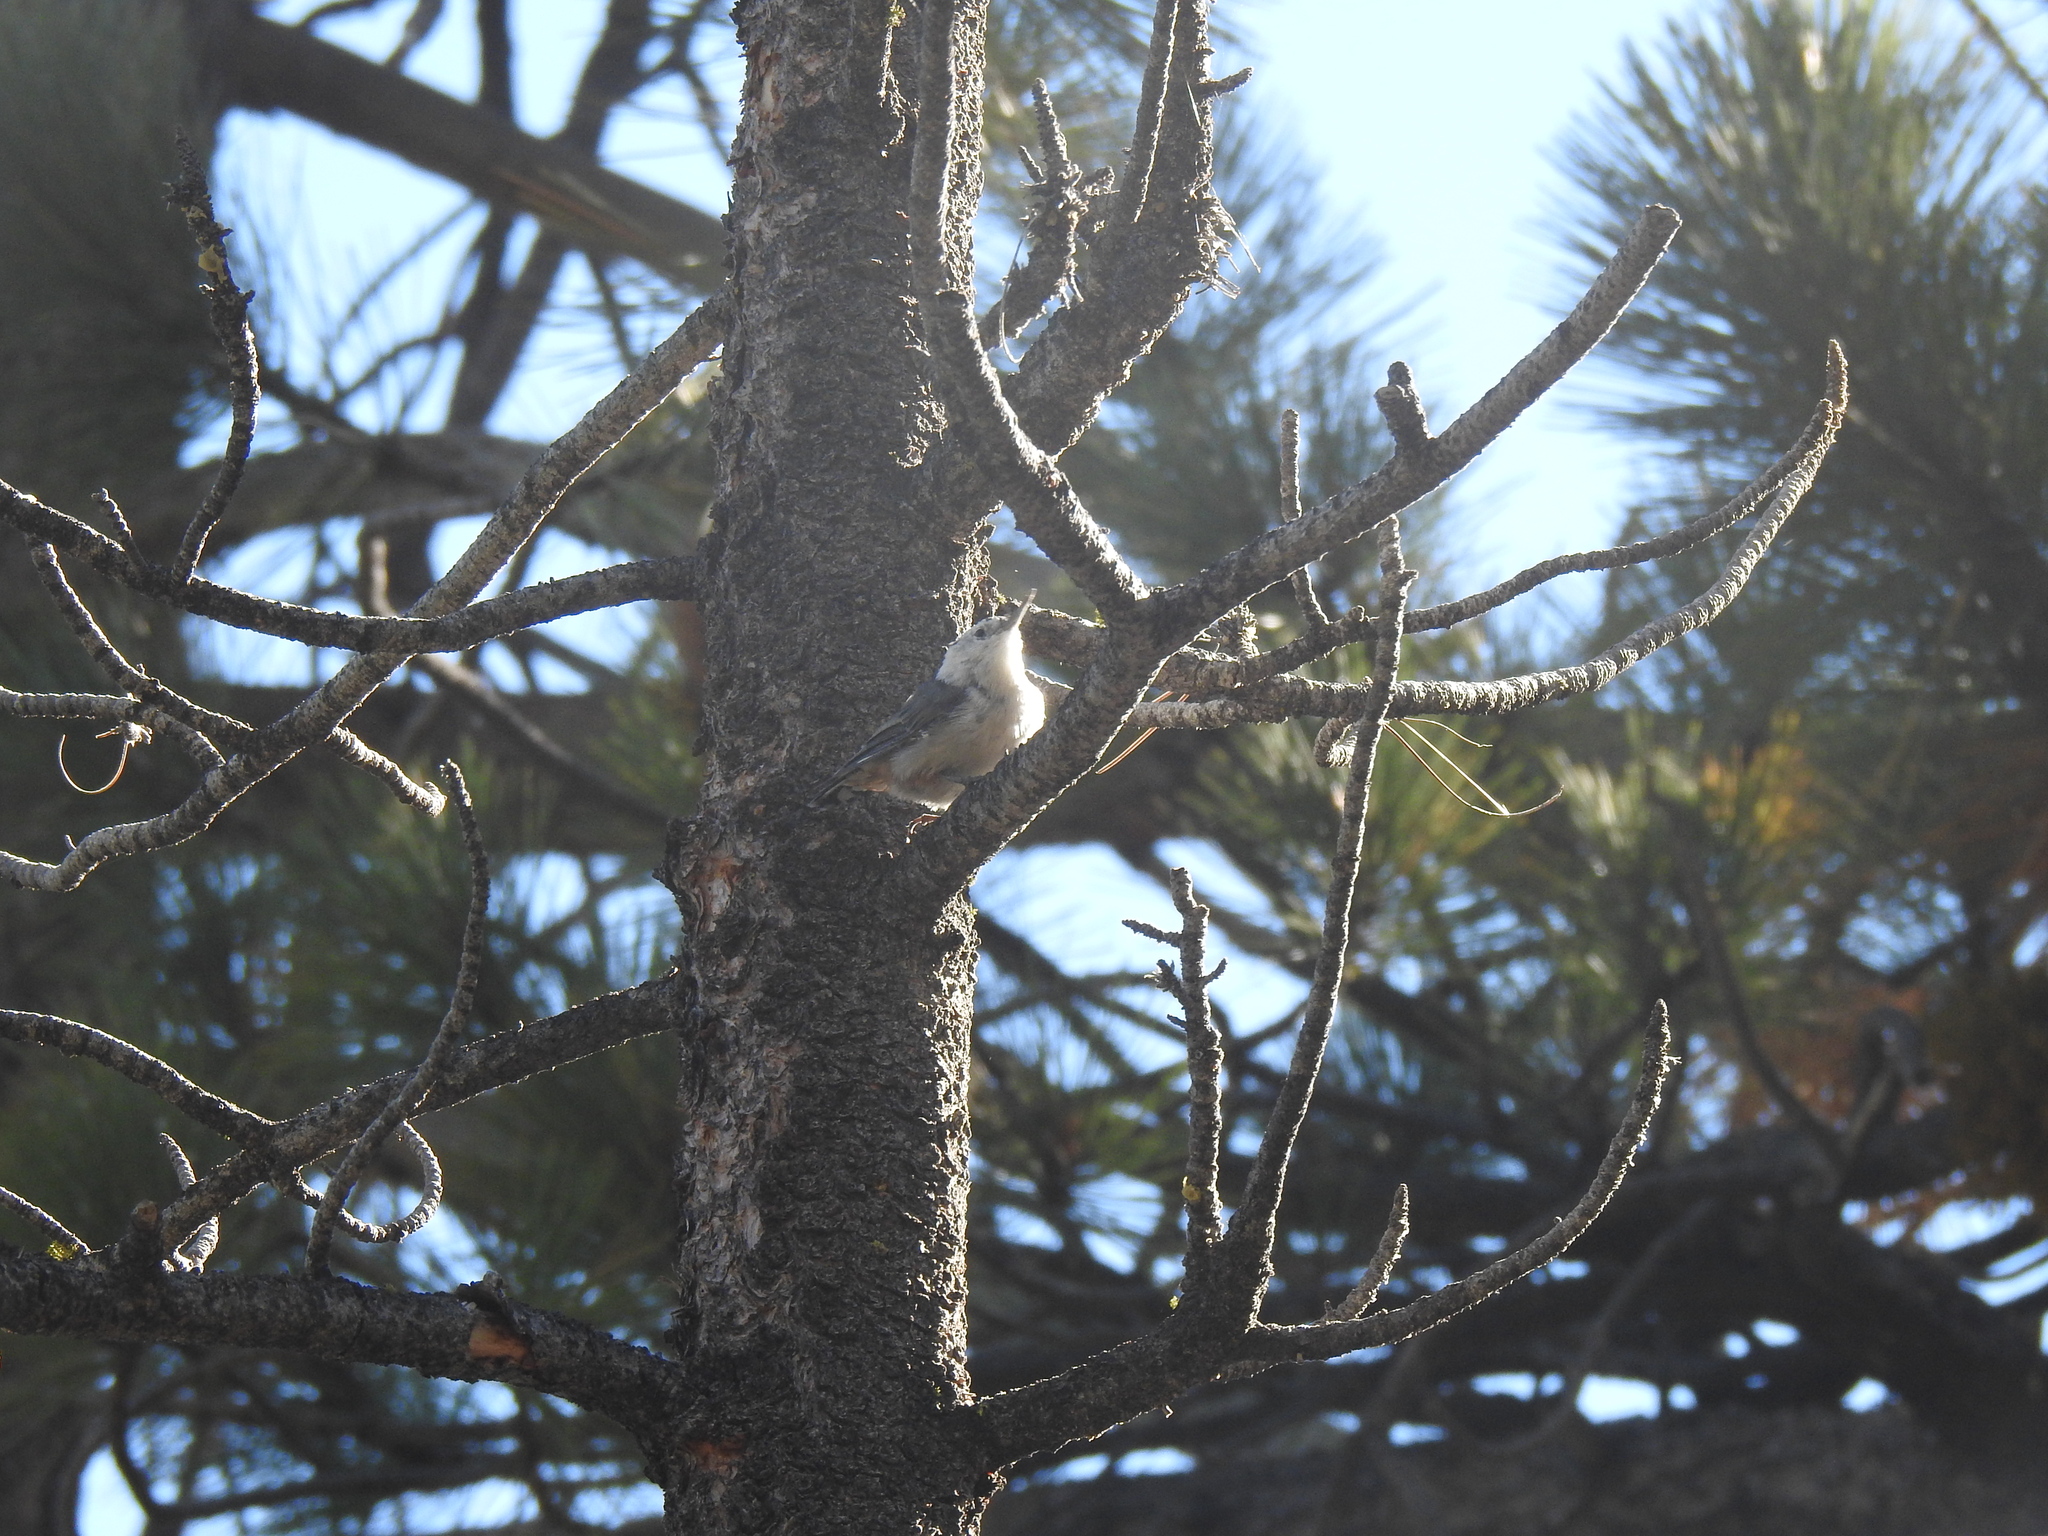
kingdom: Animalia
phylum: Chordata
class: Aves
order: Passeriformes
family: Sittidae
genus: Sitta
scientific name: Sitta carolinensis
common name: White-breasted nuthatch
